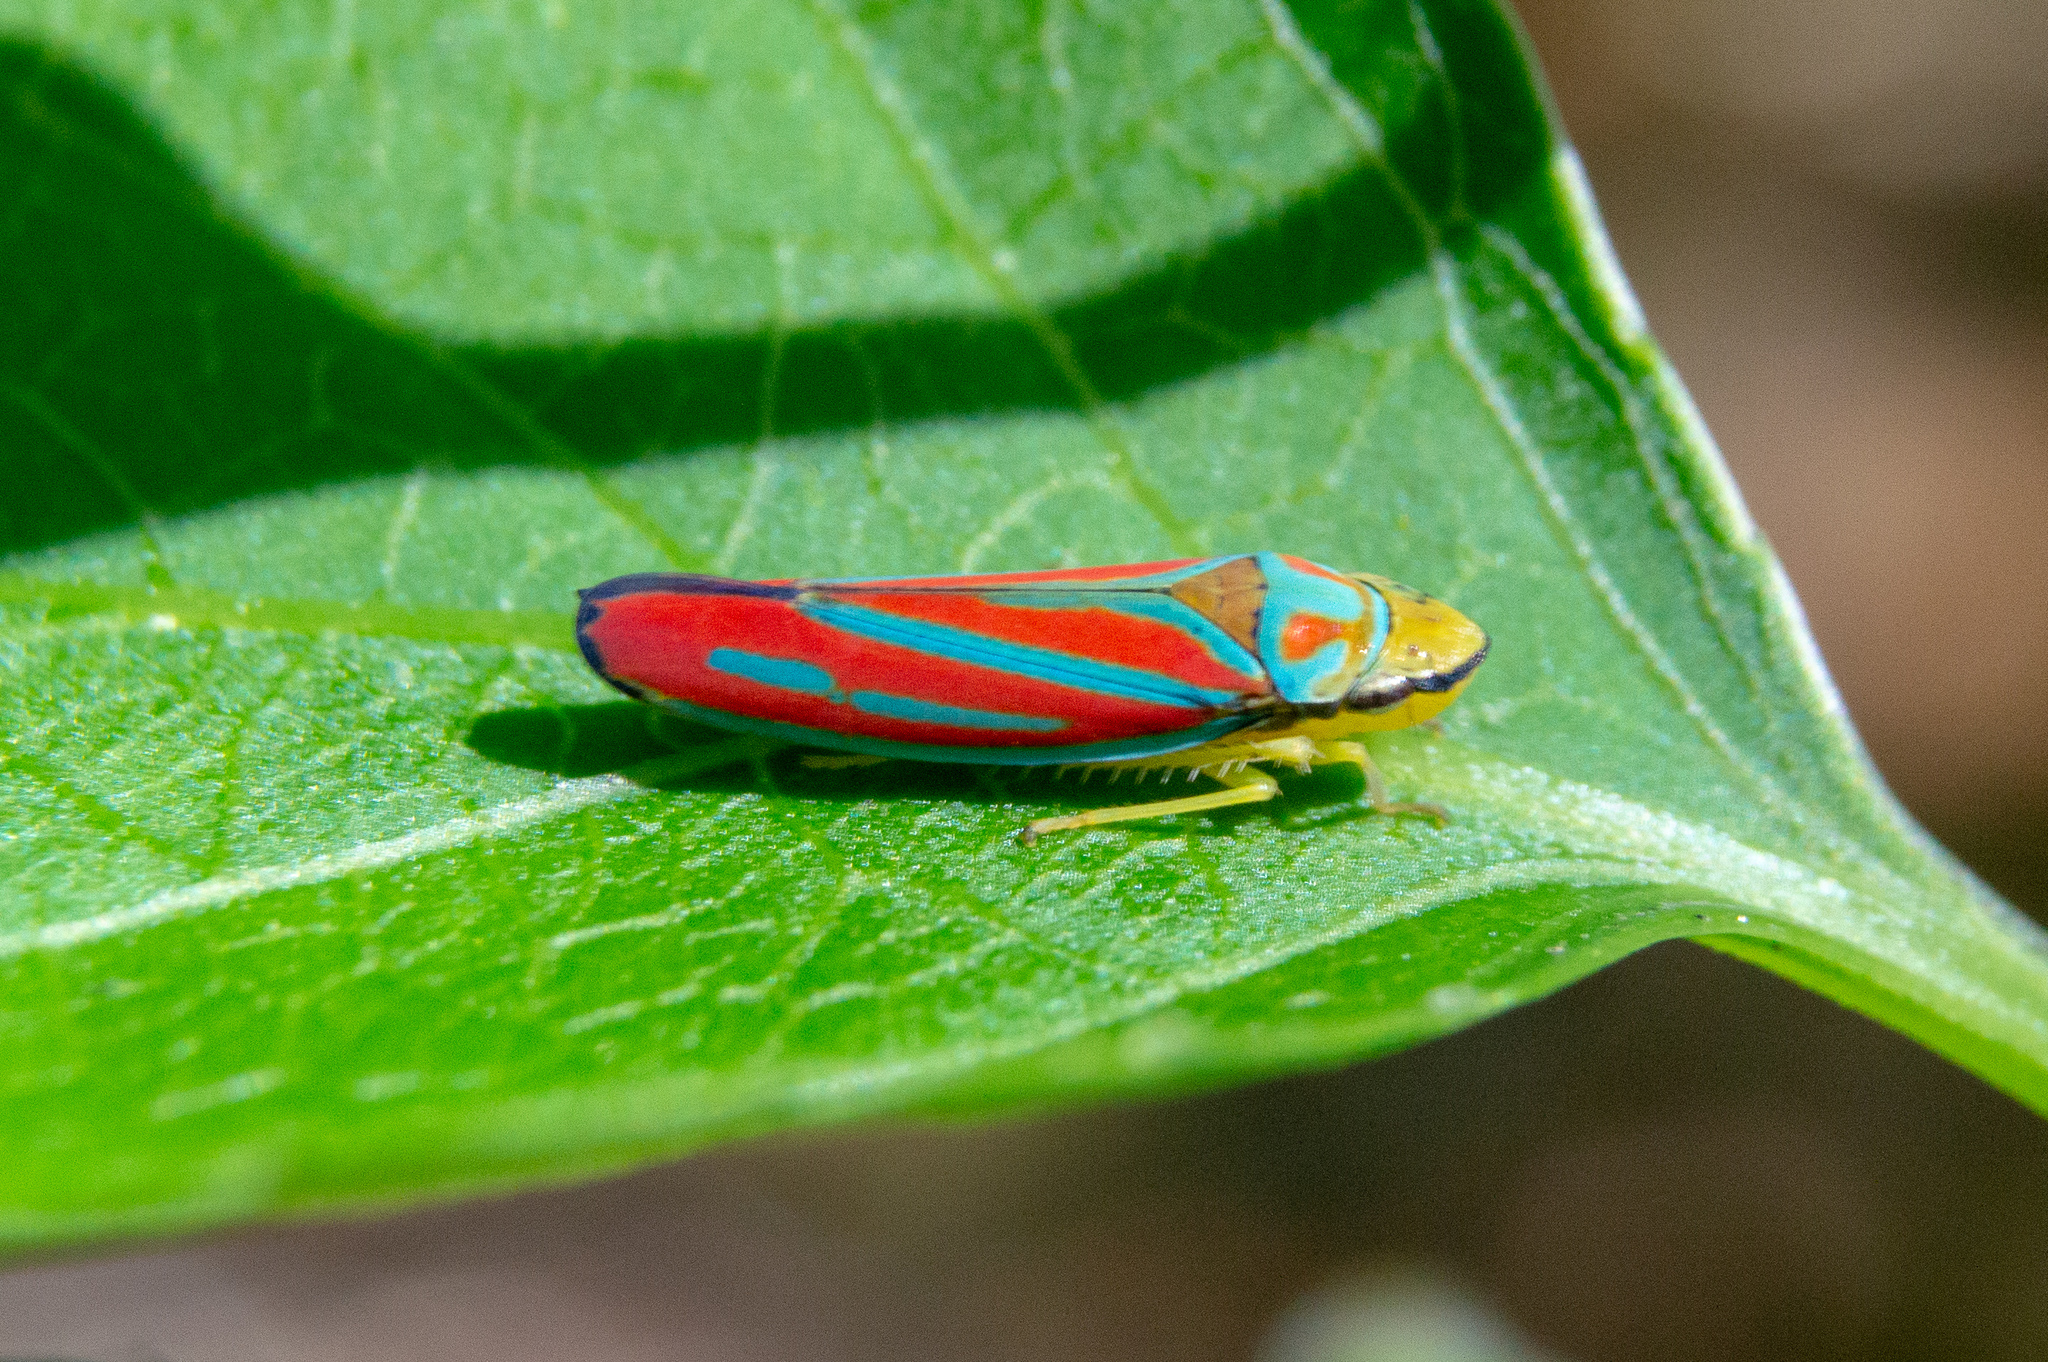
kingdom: Animalia
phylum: Arthropoda
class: Insecta
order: Hemiptera
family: Cicadellidae
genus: Graphocephala
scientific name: Graphocephala coccinea
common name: Candy-striped leafhopper
